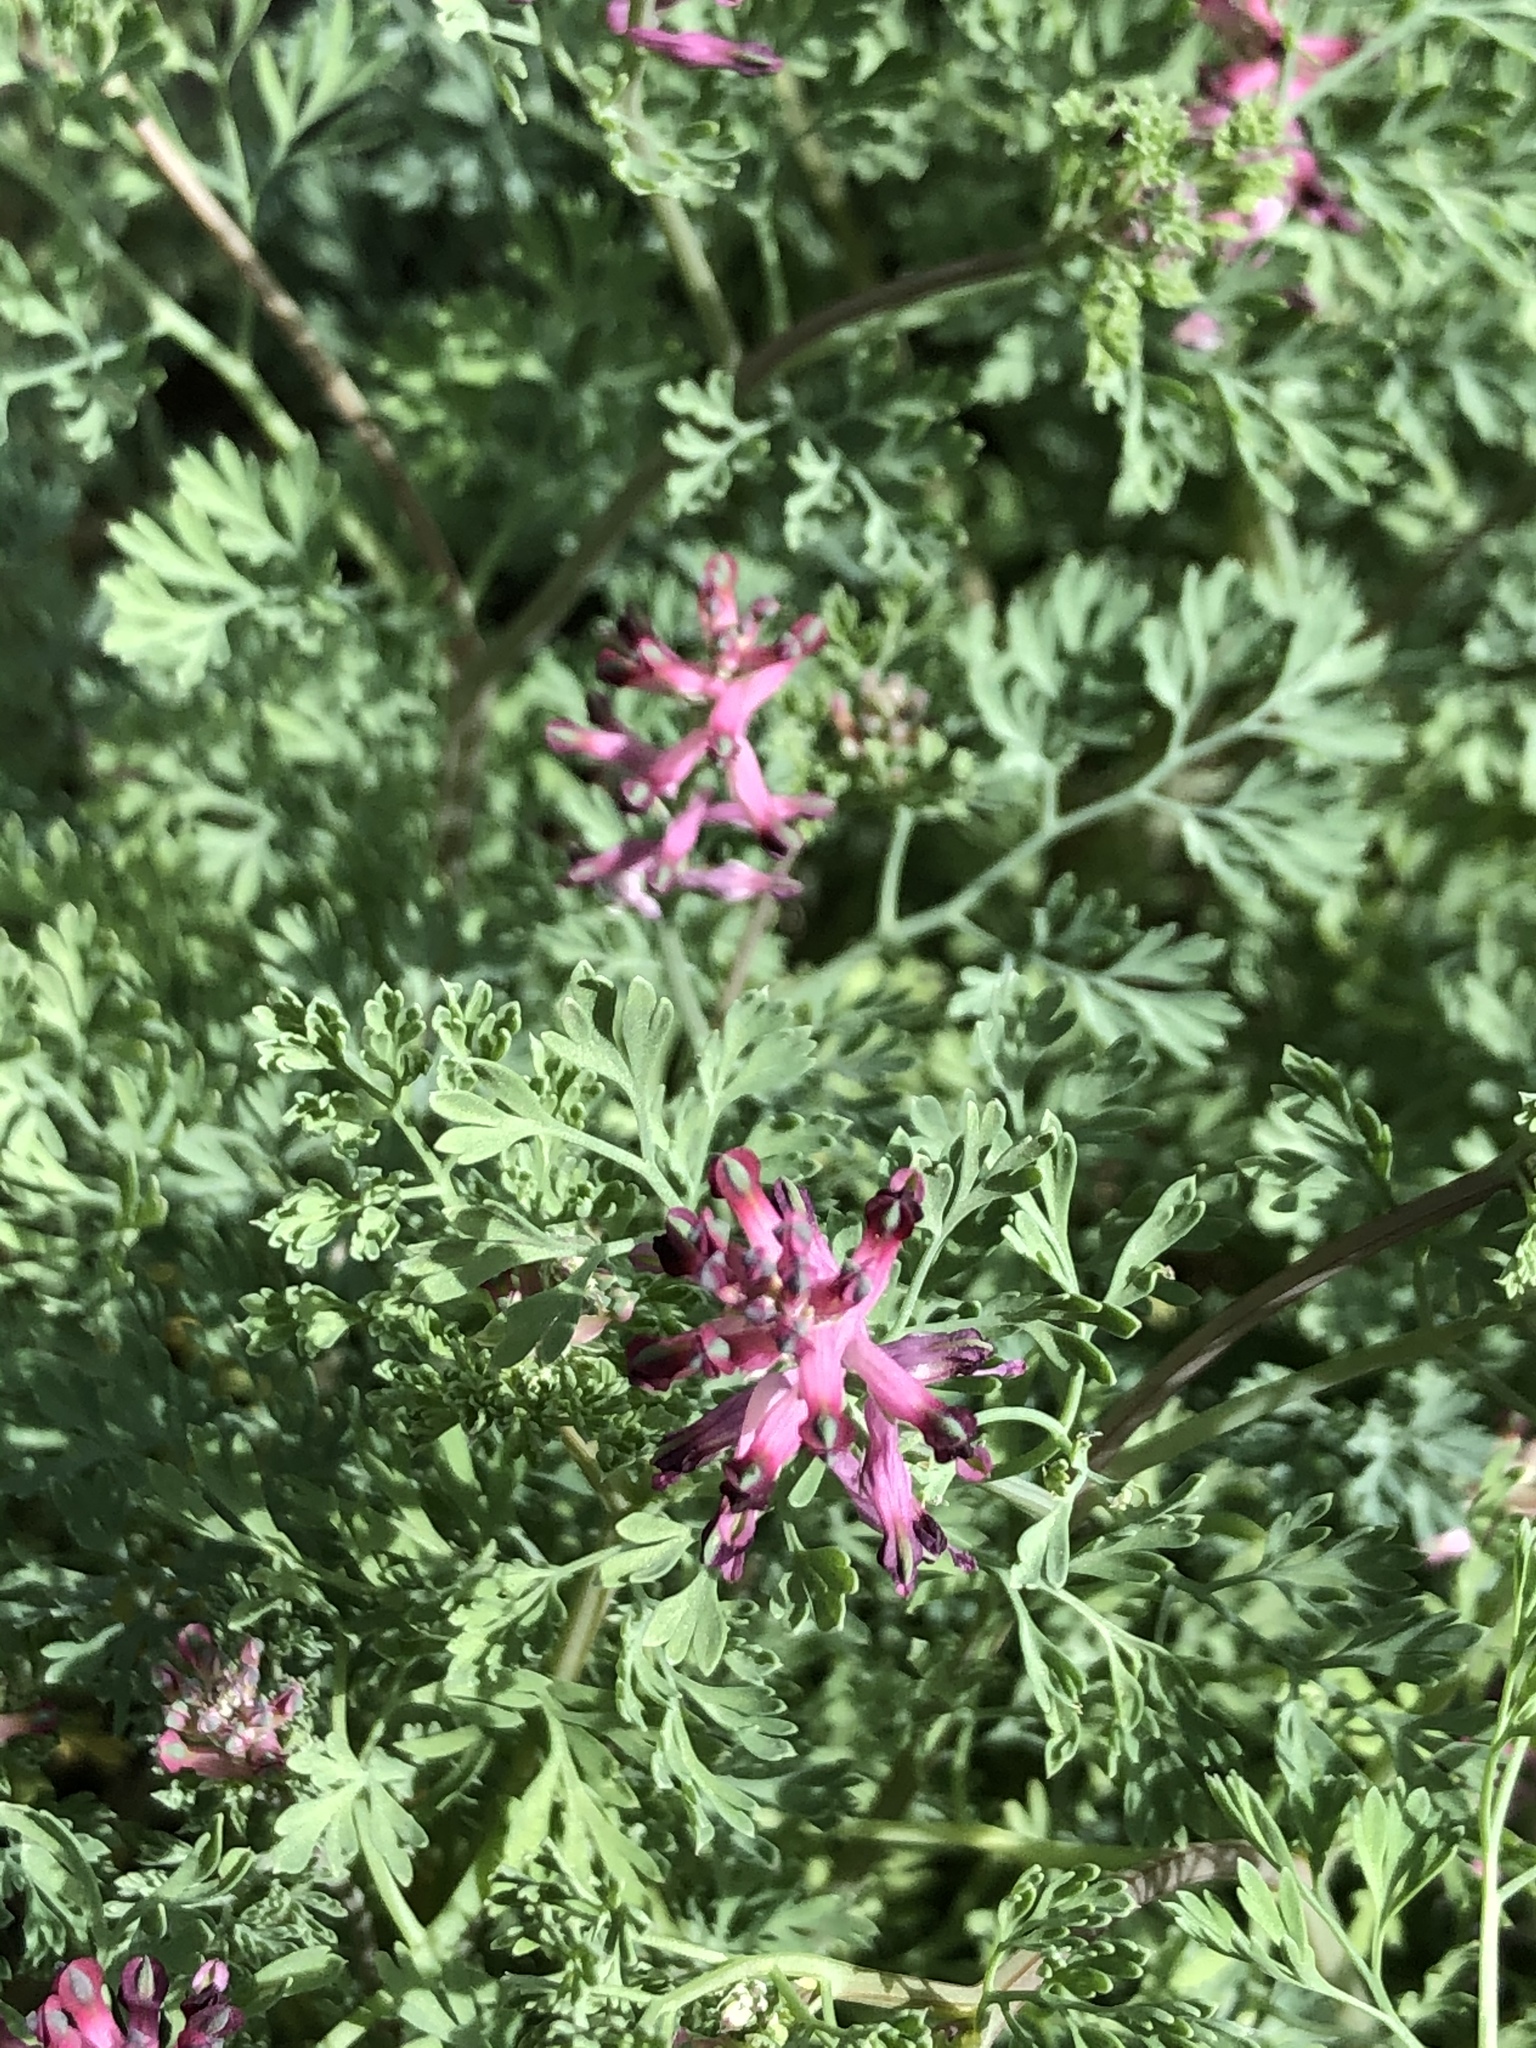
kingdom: Plantae
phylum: Tracheophyta
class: Magnoliopsida
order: Ranunculales
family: Papaveraceae
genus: Fumaria
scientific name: Fumaria officinalis
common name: Common fumitory
